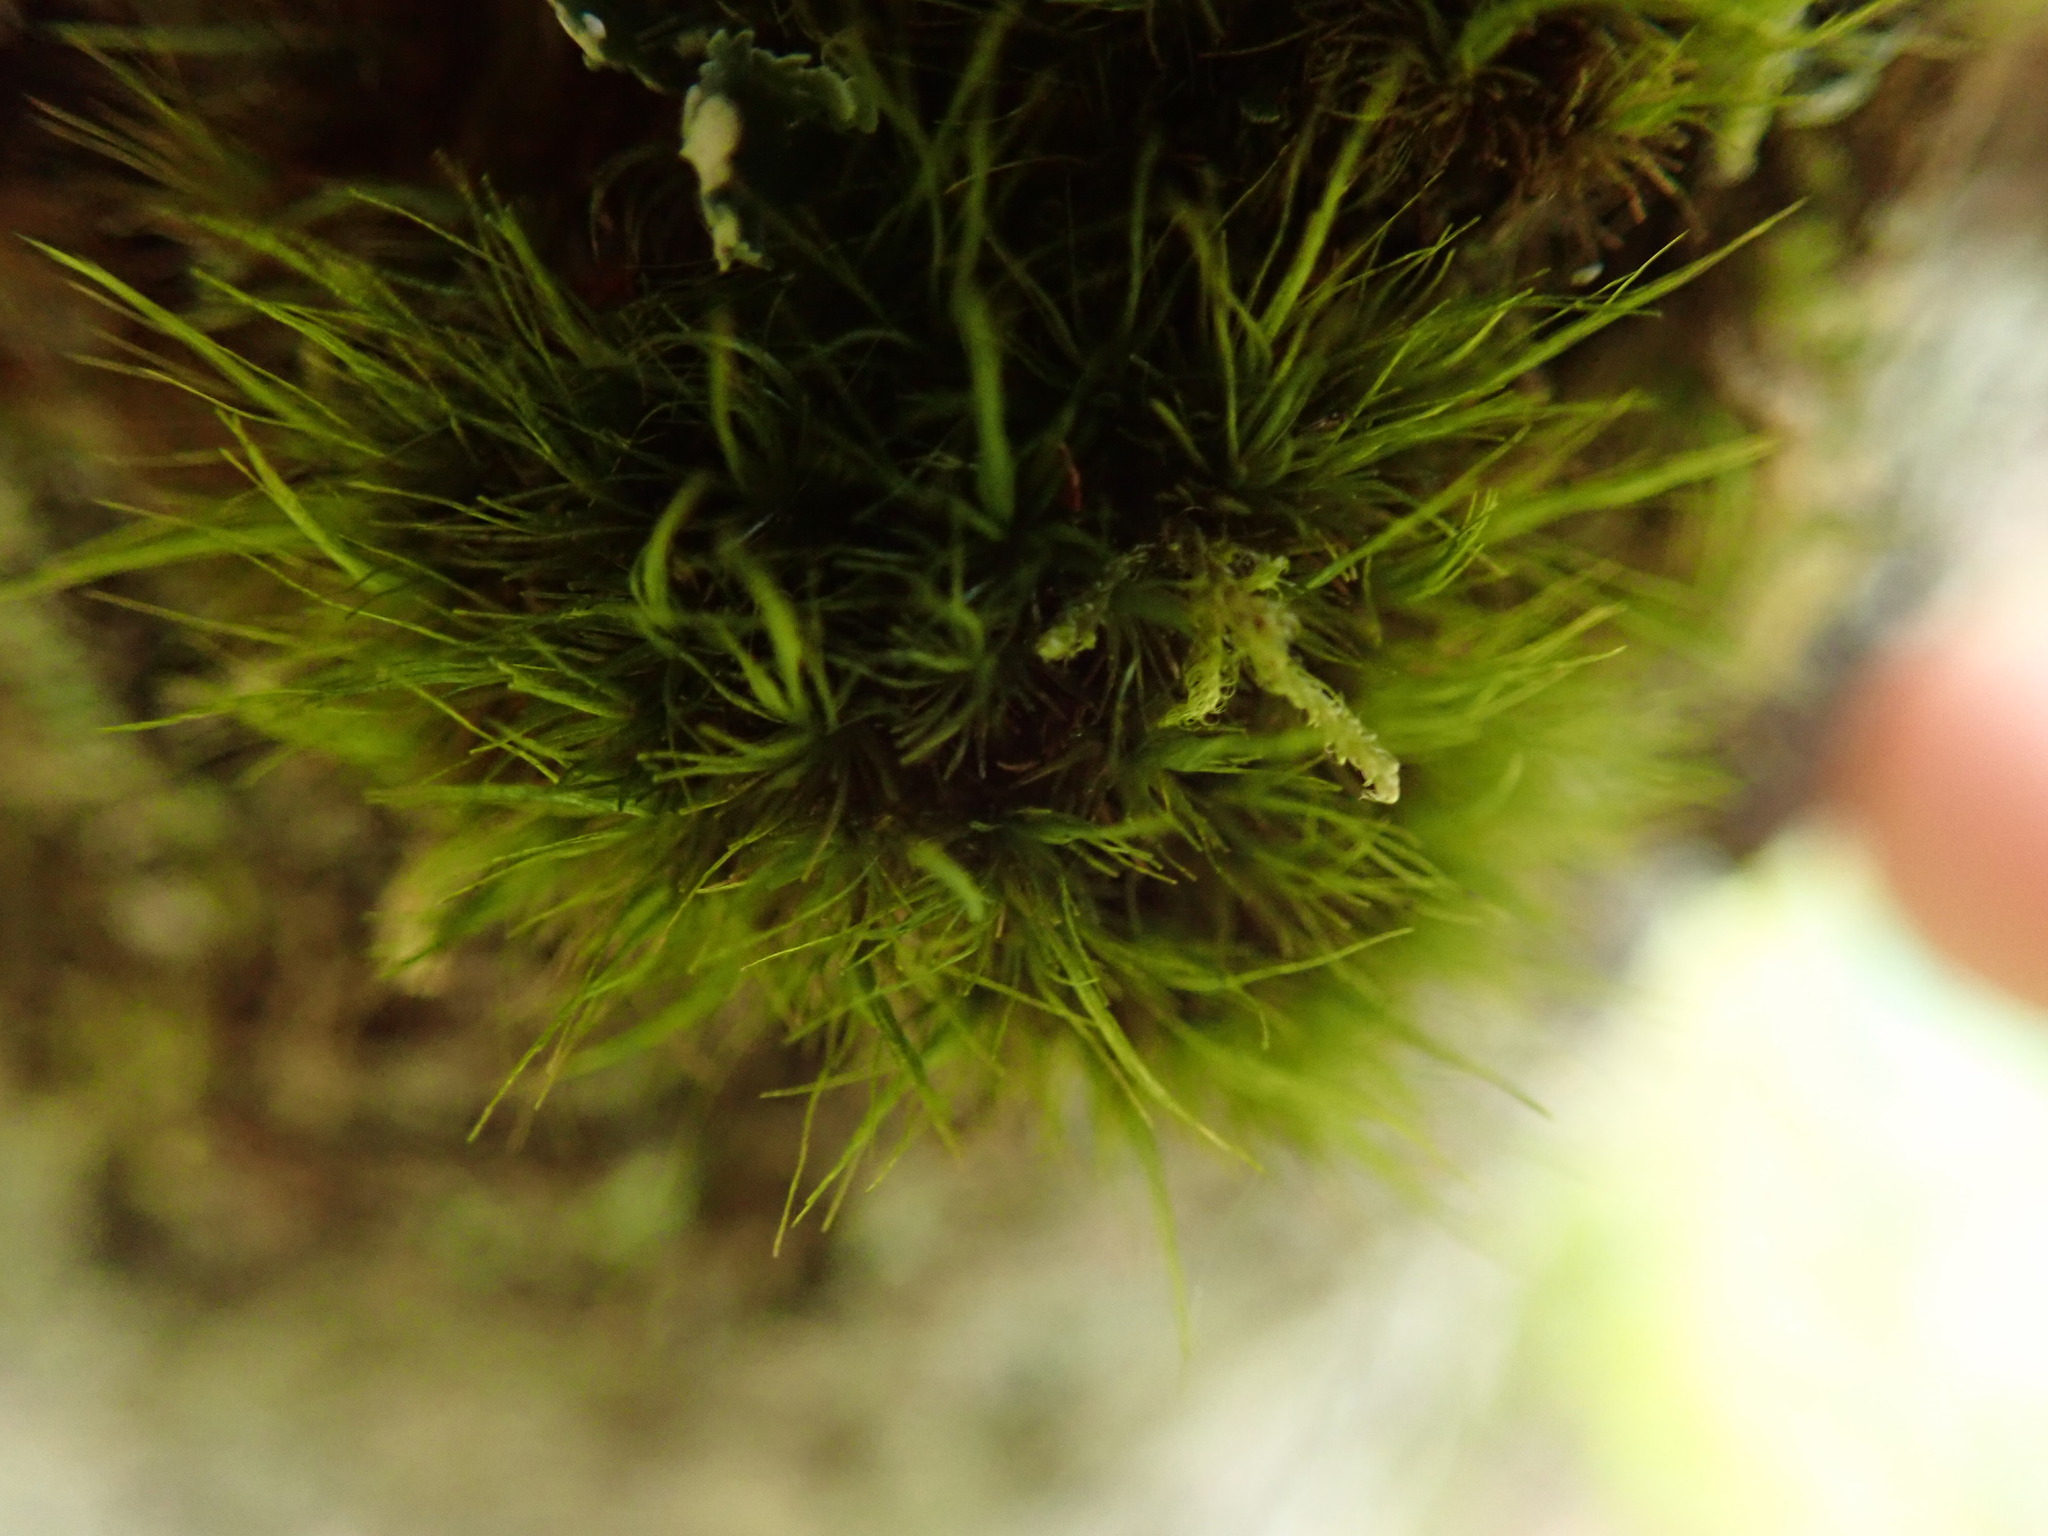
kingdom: Plantae
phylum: Bryophyta
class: Bryopsida
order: Dicranales
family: Dicranaceae
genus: Orthodicranum
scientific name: Orthodicranum tauricum
